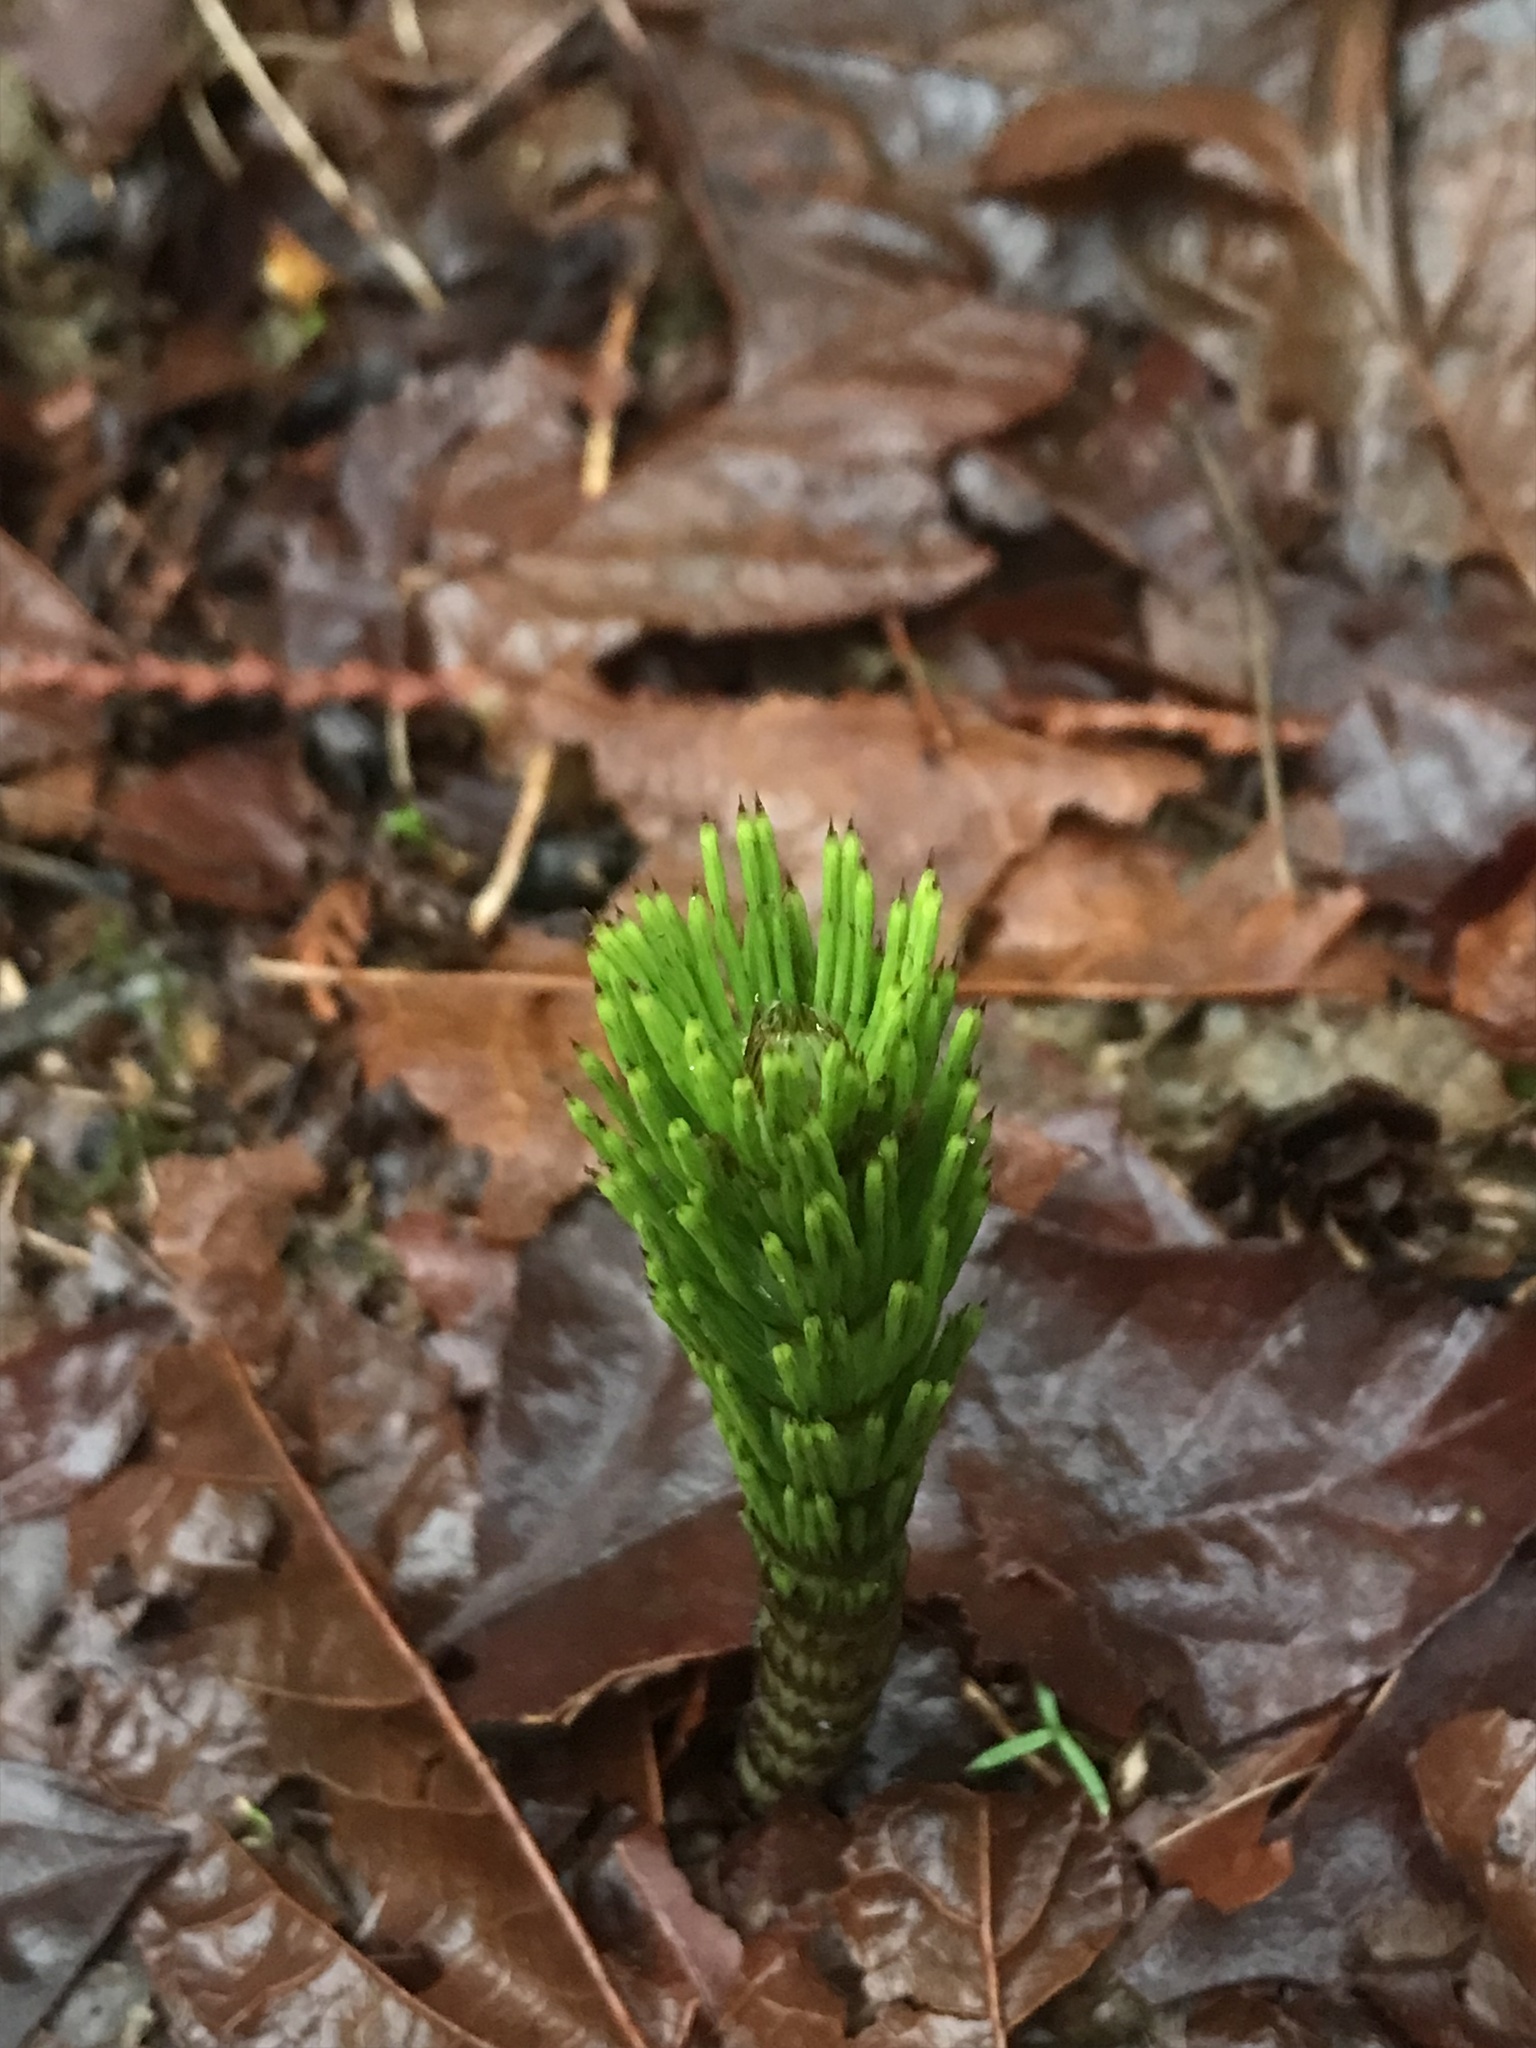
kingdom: Plantae
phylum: Tracheophyta
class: Polypodiopsida
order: Equisetales
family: Equisetaceae
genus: Equisetum
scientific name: Equisetum telmateia
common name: Great horsetail
